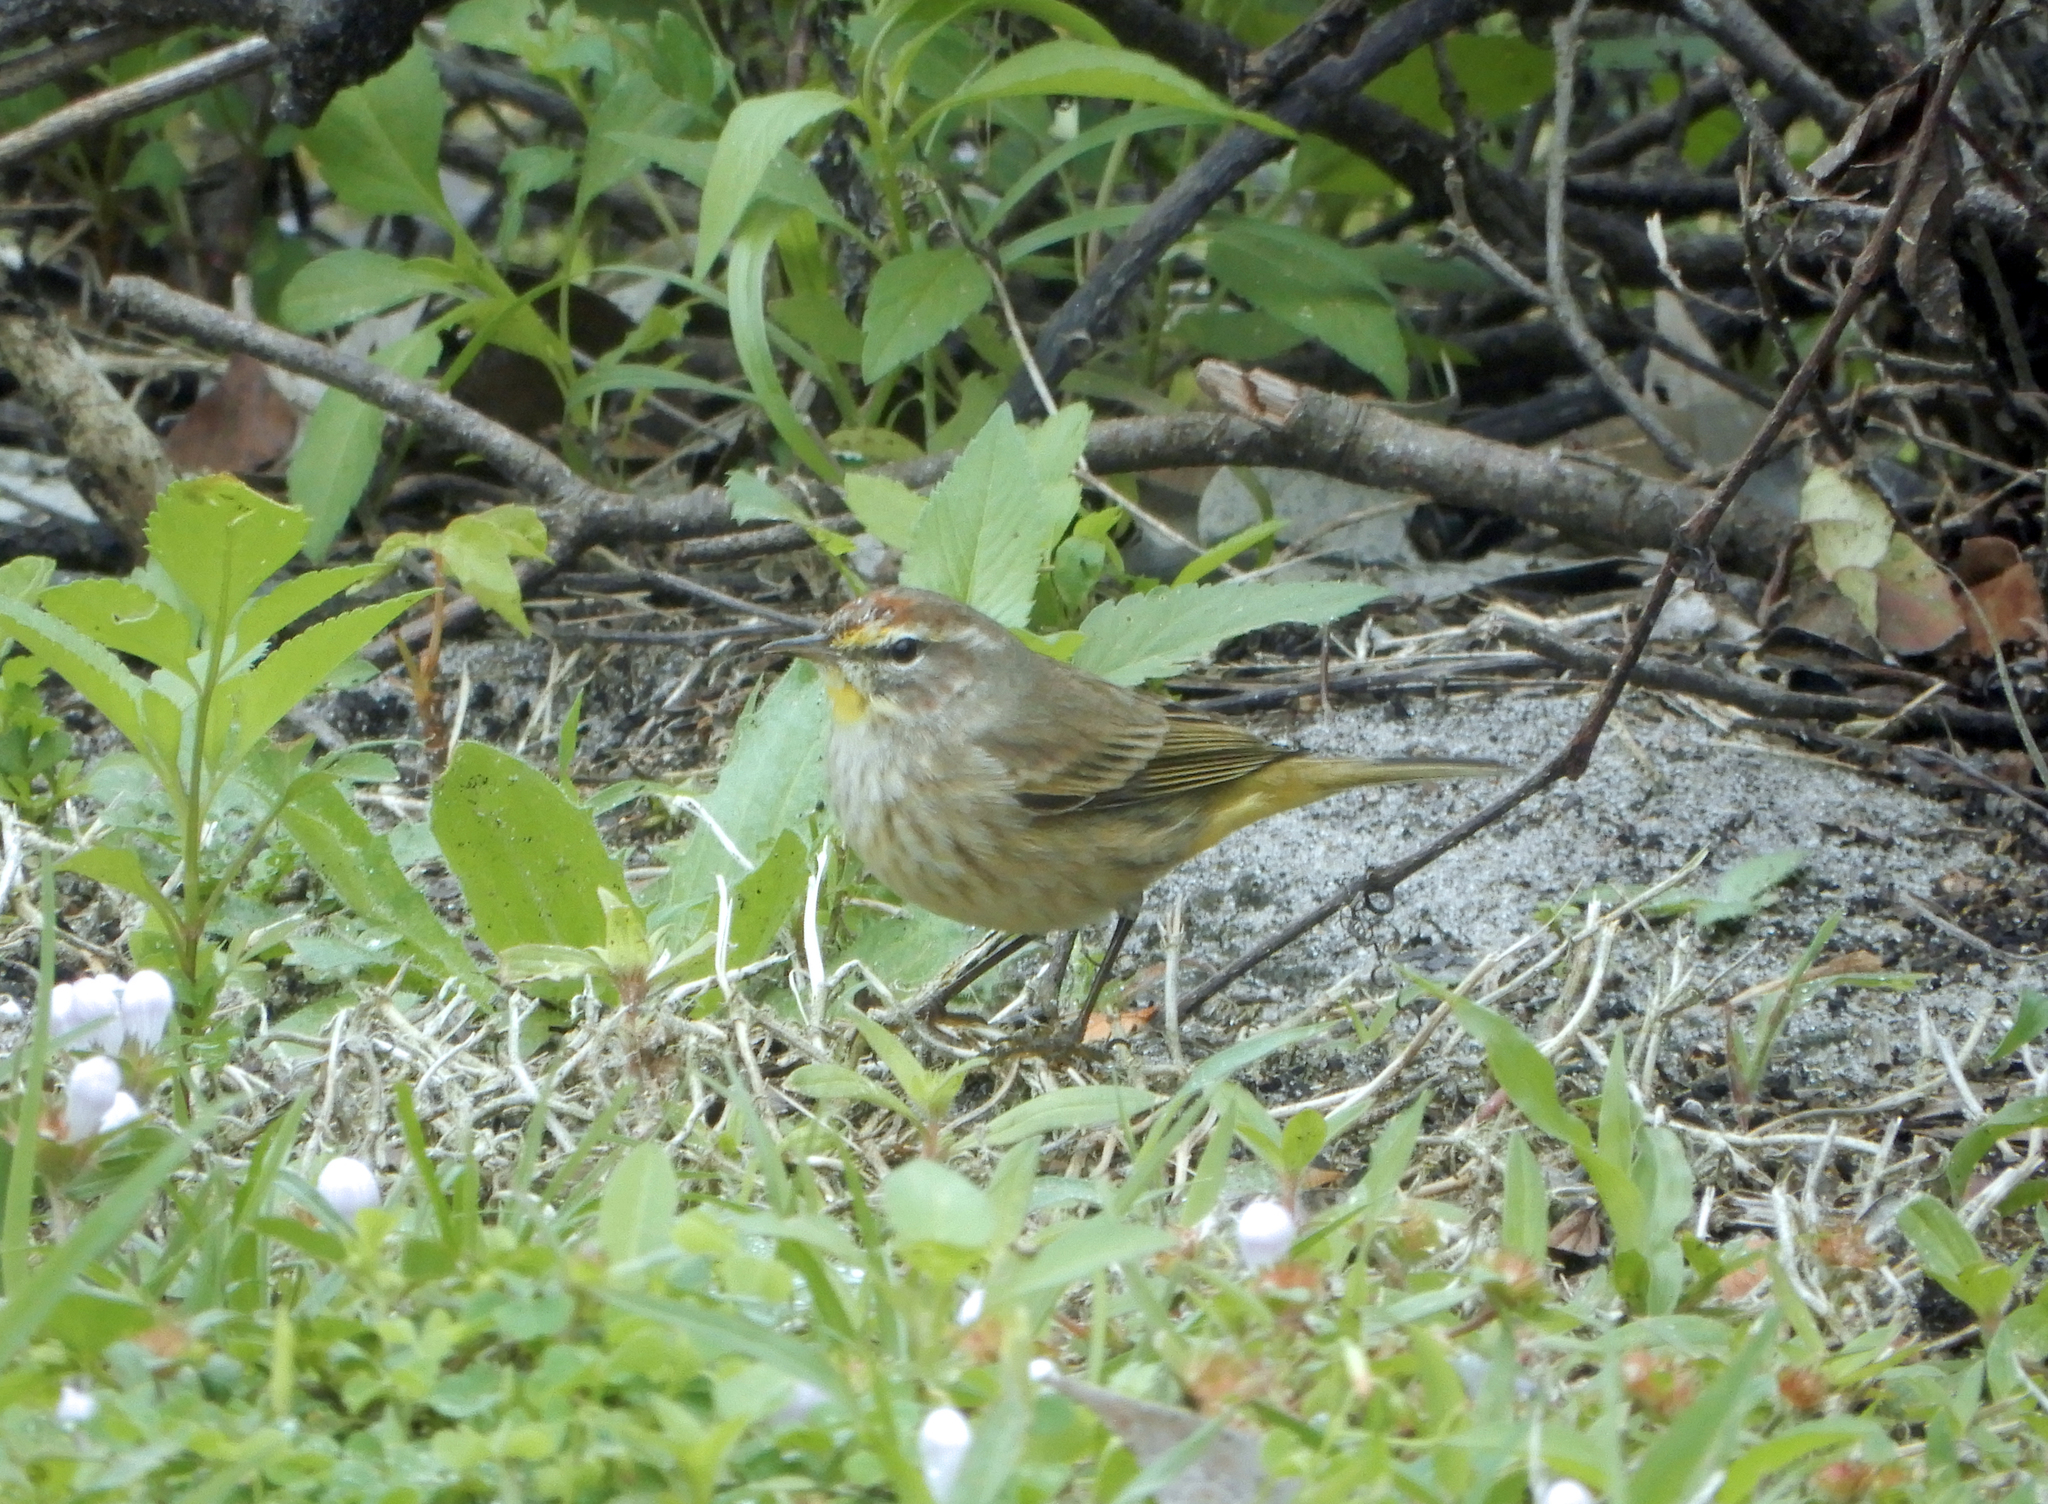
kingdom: Animalia
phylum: Chordata
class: Aves
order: Passeriformes
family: Parulidae
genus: Setophaga
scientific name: Setophaga palmarum
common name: Palm warbler
